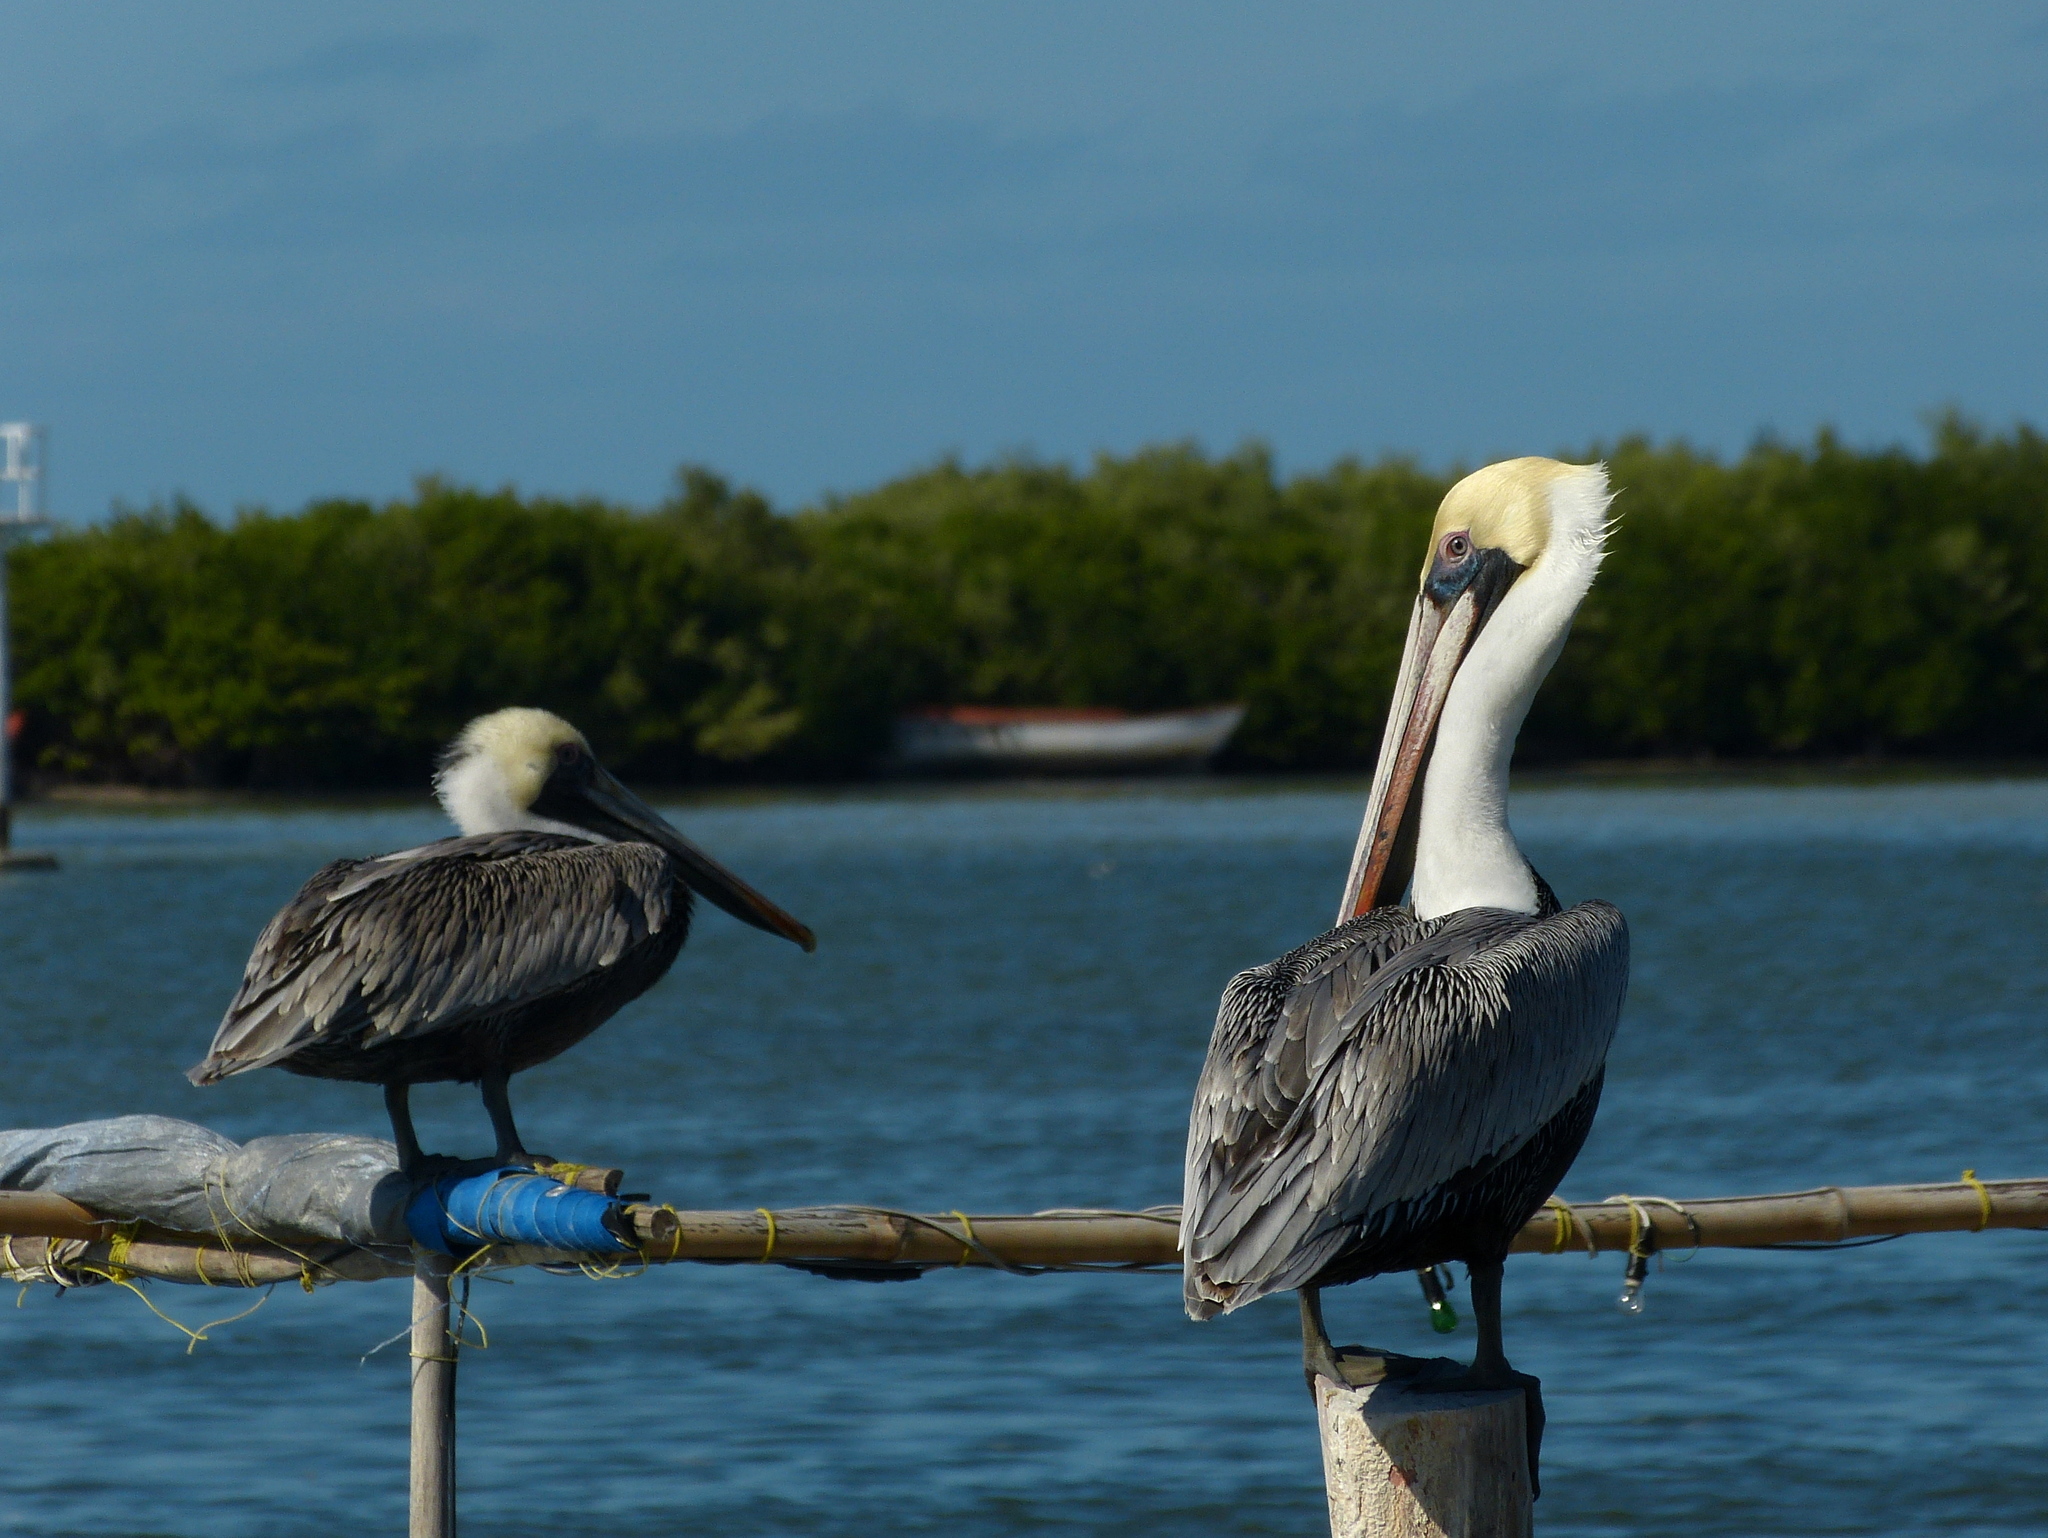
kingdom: Animalia
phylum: Chordata
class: Aves
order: Pelecaniformes
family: Pelecanidae
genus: Pelecanus
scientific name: Pelecanus occidentalis
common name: Brown pelican
